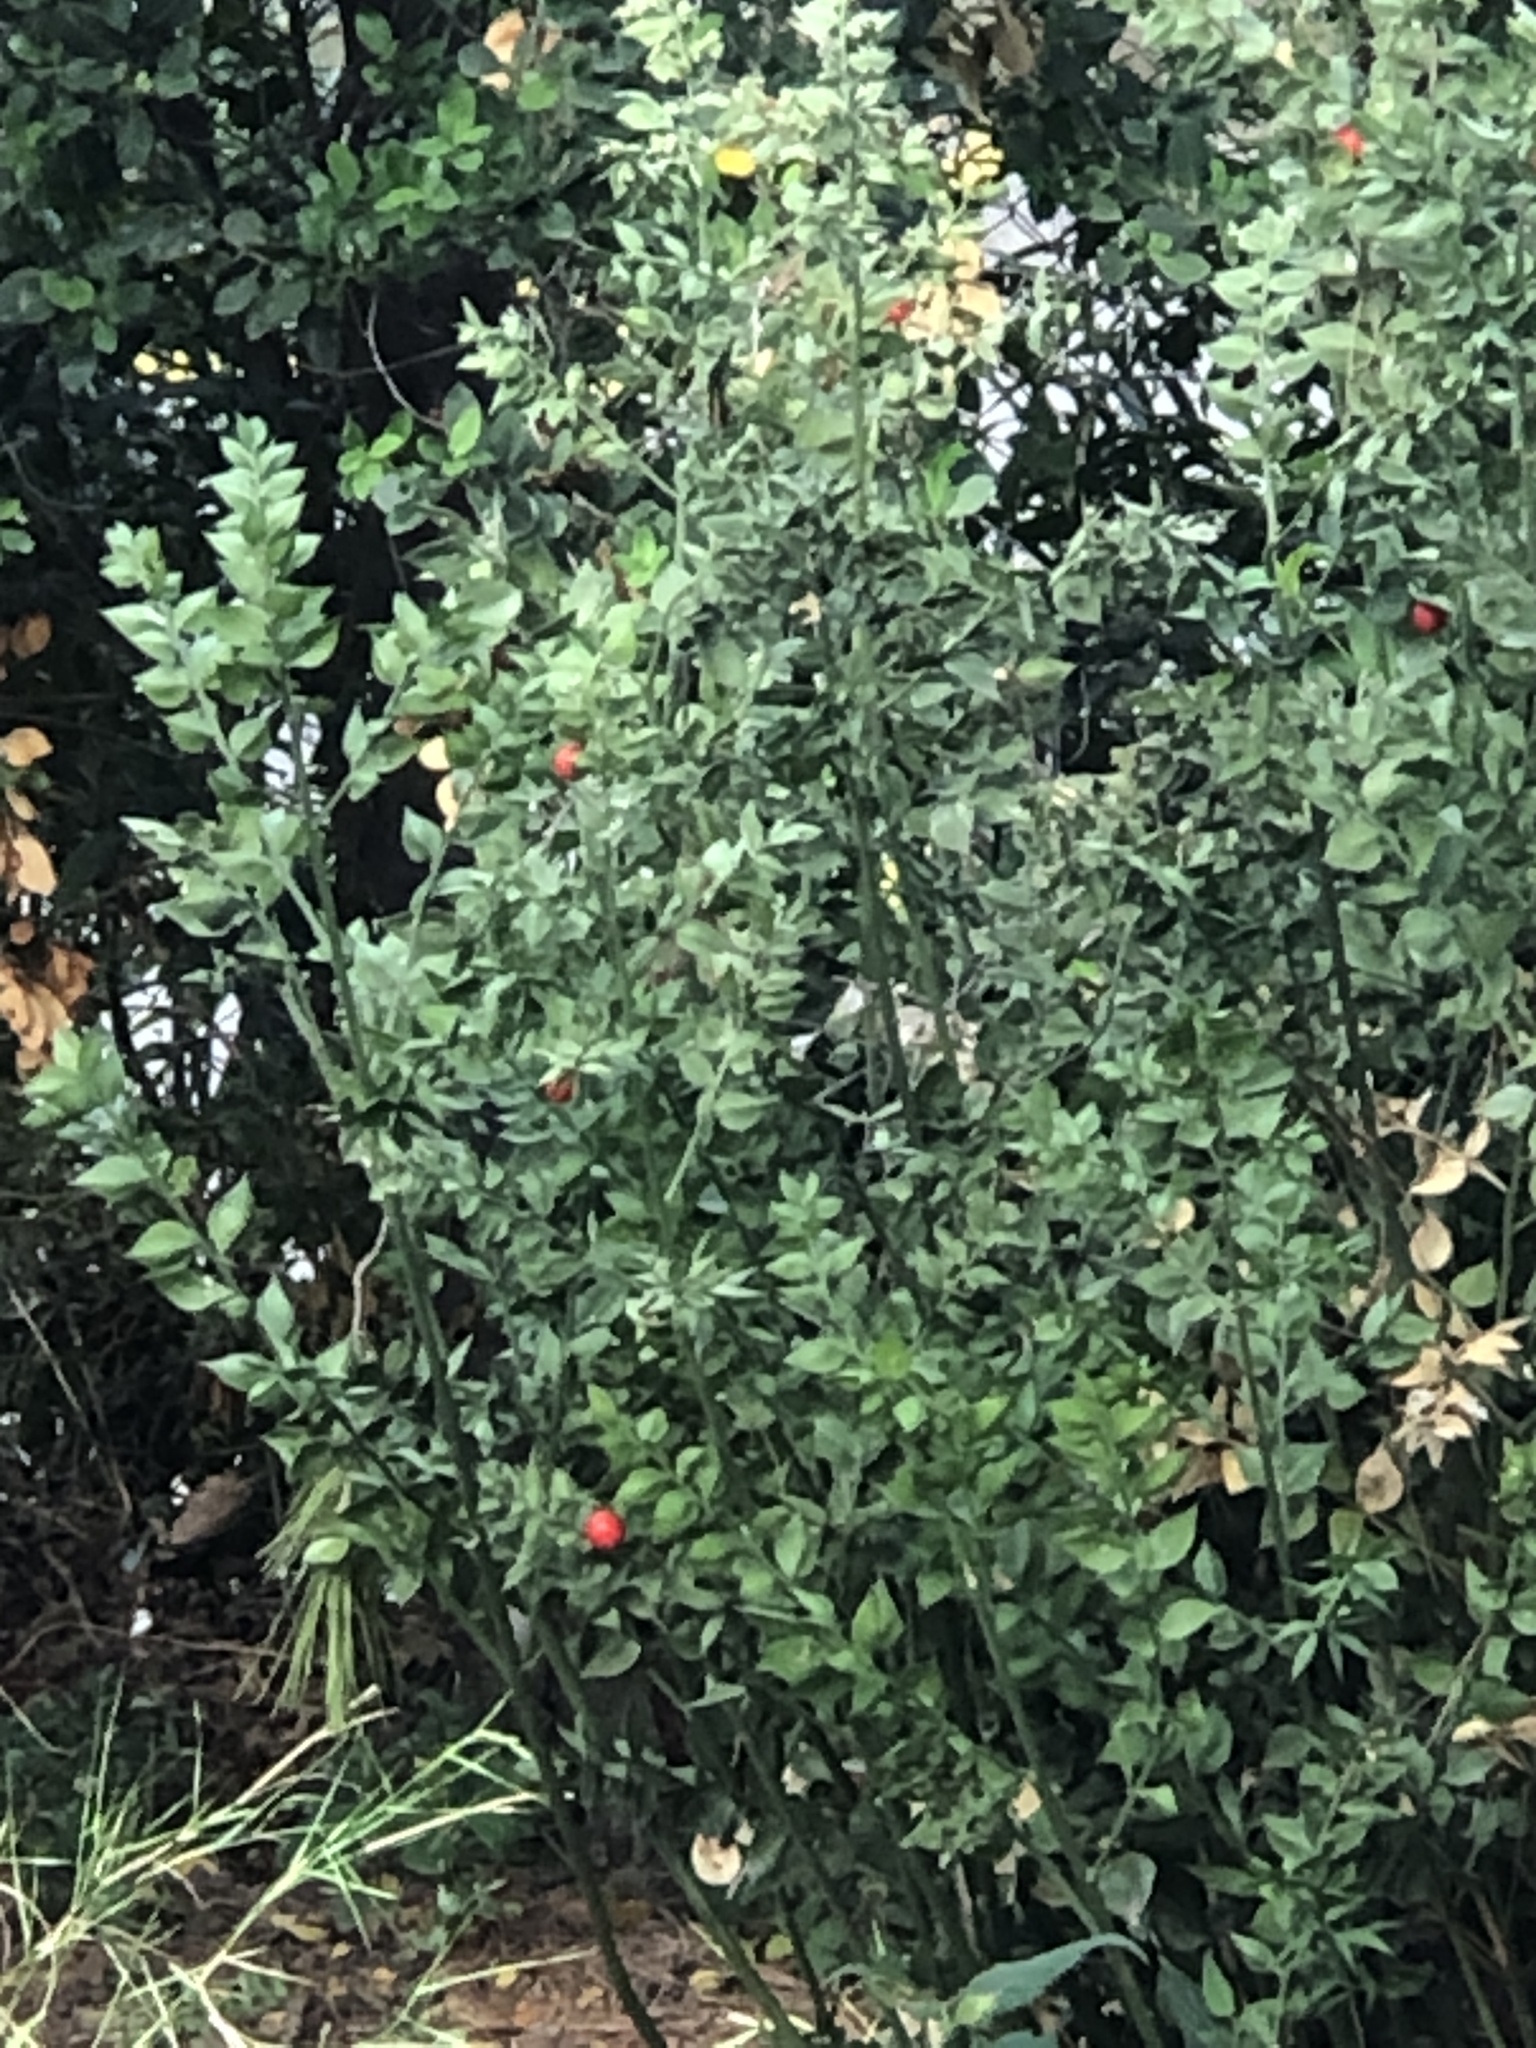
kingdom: Plantae
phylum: Tracheophyta
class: Liliopsida
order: Asparagales
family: Asparagaceae
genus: Ruscus
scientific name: Ruscus aculeatus
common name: Butcher's-broom
